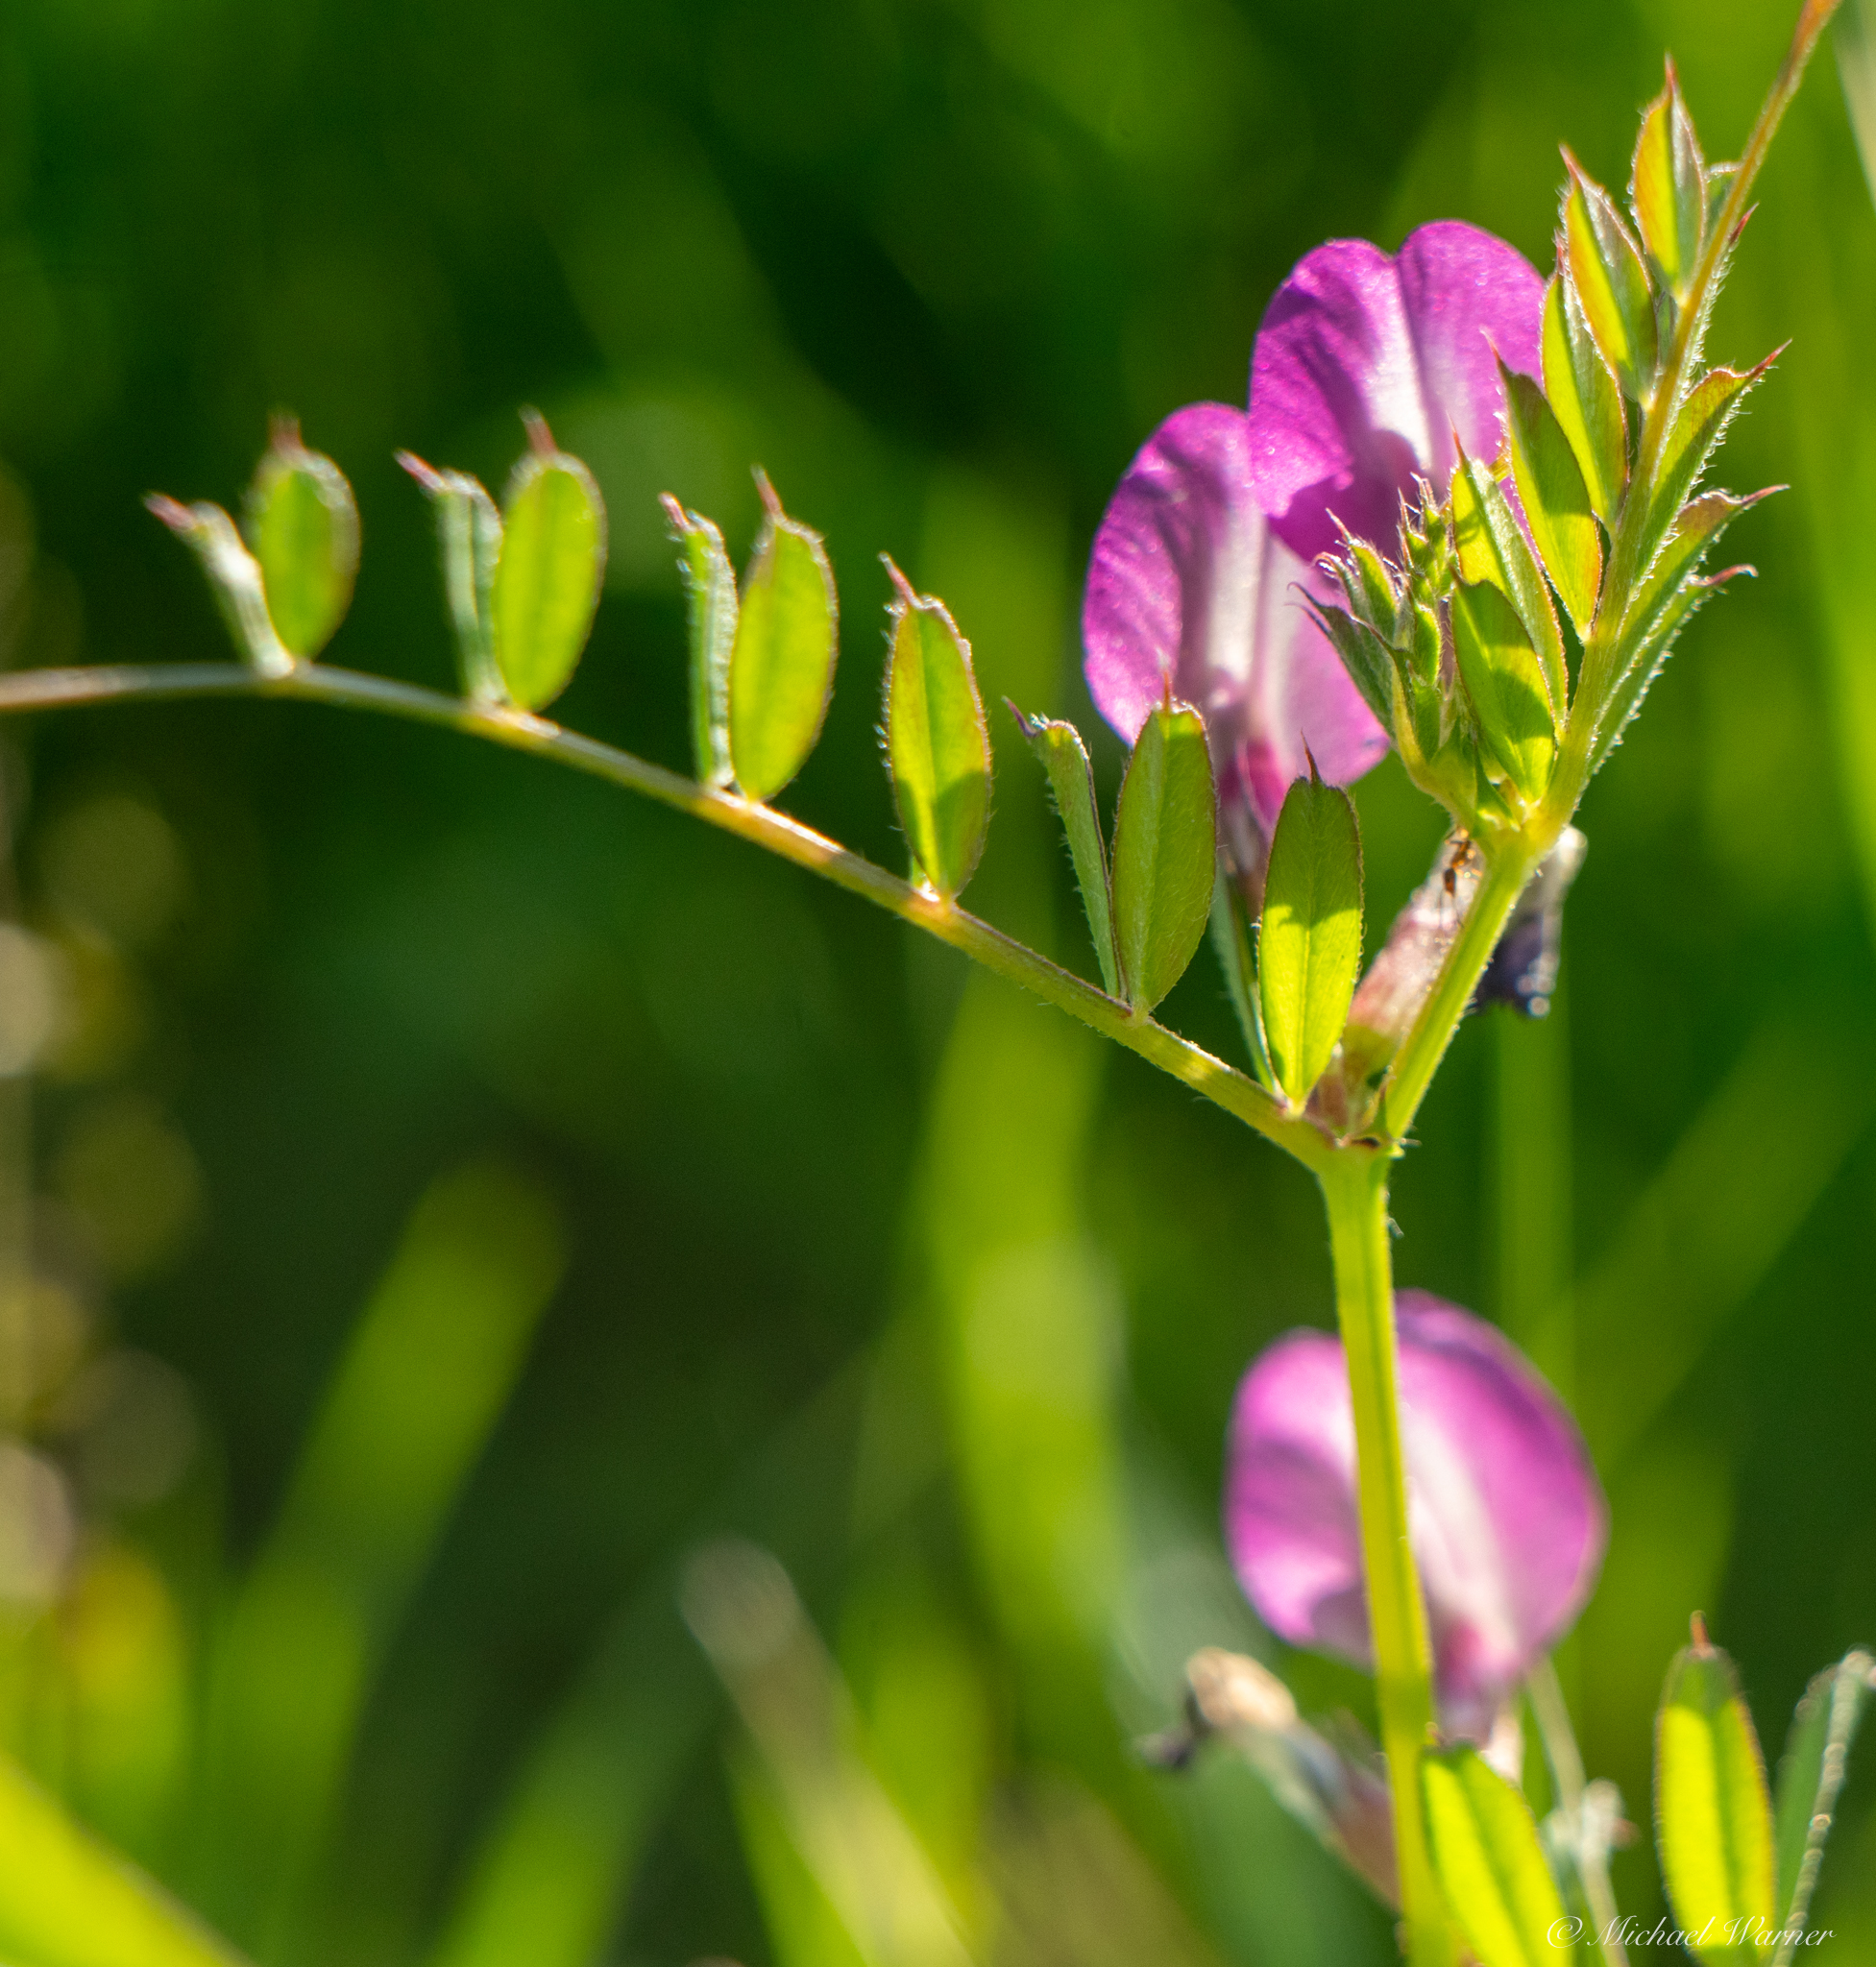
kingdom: Plantae
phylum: Tracheophyta
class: Magnoliopsida
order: Fabales
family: Fabaceae
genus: Vicia
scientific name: Vicia sativa
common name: Garden vetch
